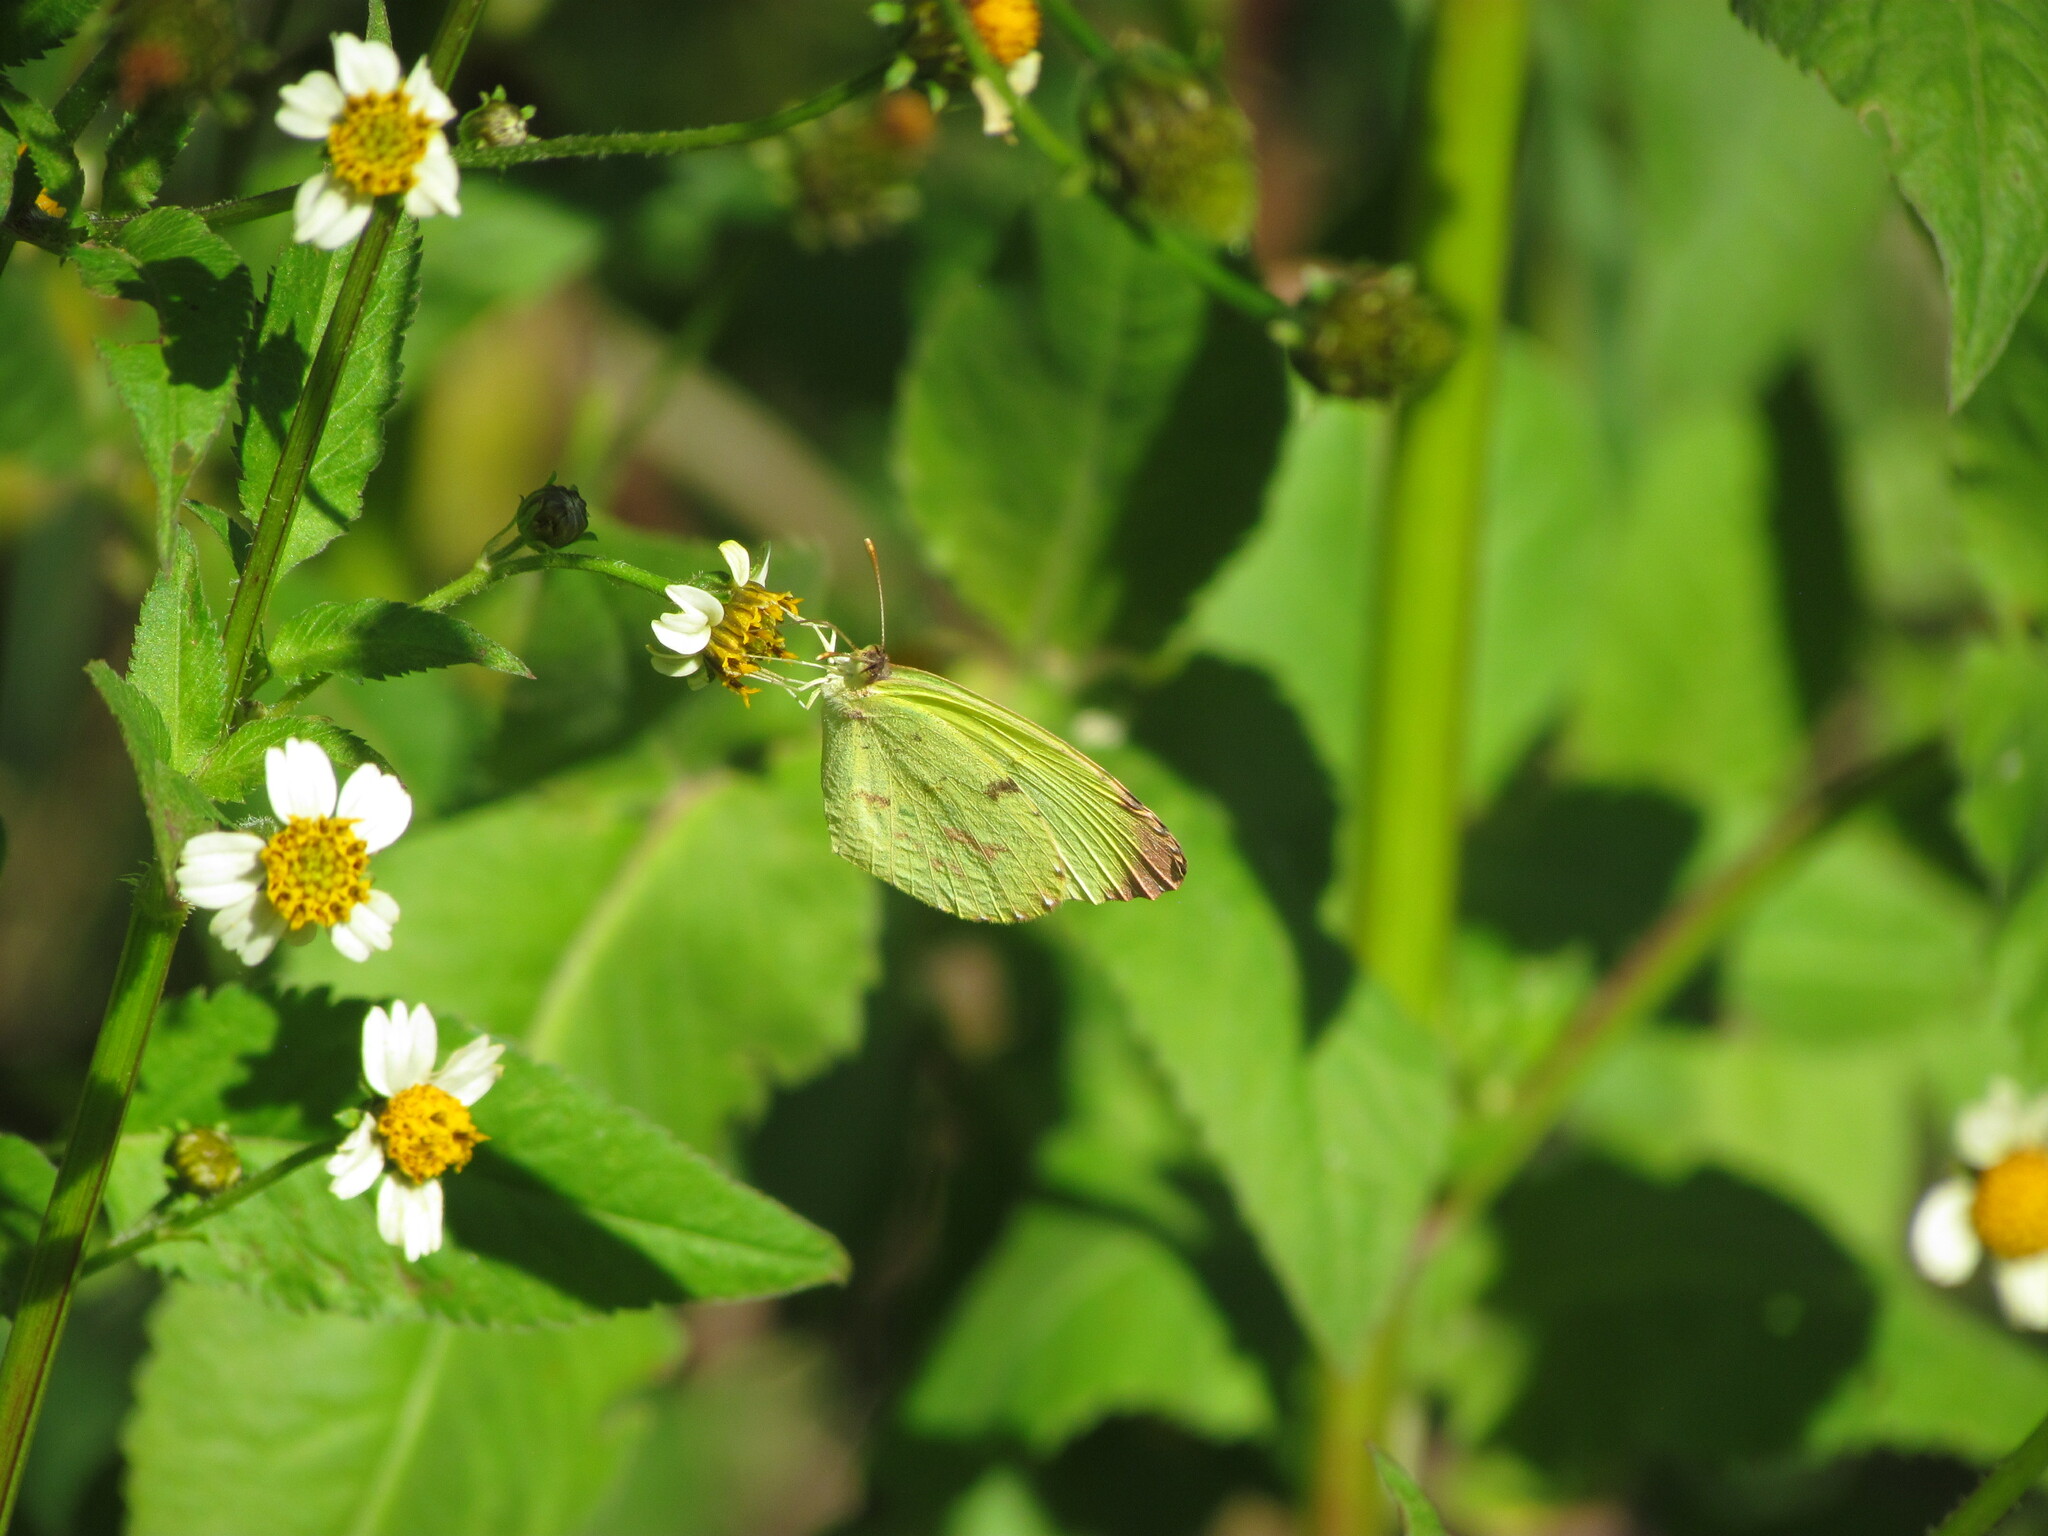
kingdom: Animalia
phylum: Arthropoda
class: Insecta
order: Lepidoptera
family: Pieridae
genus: Teriocolias
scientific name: Teriocolias
